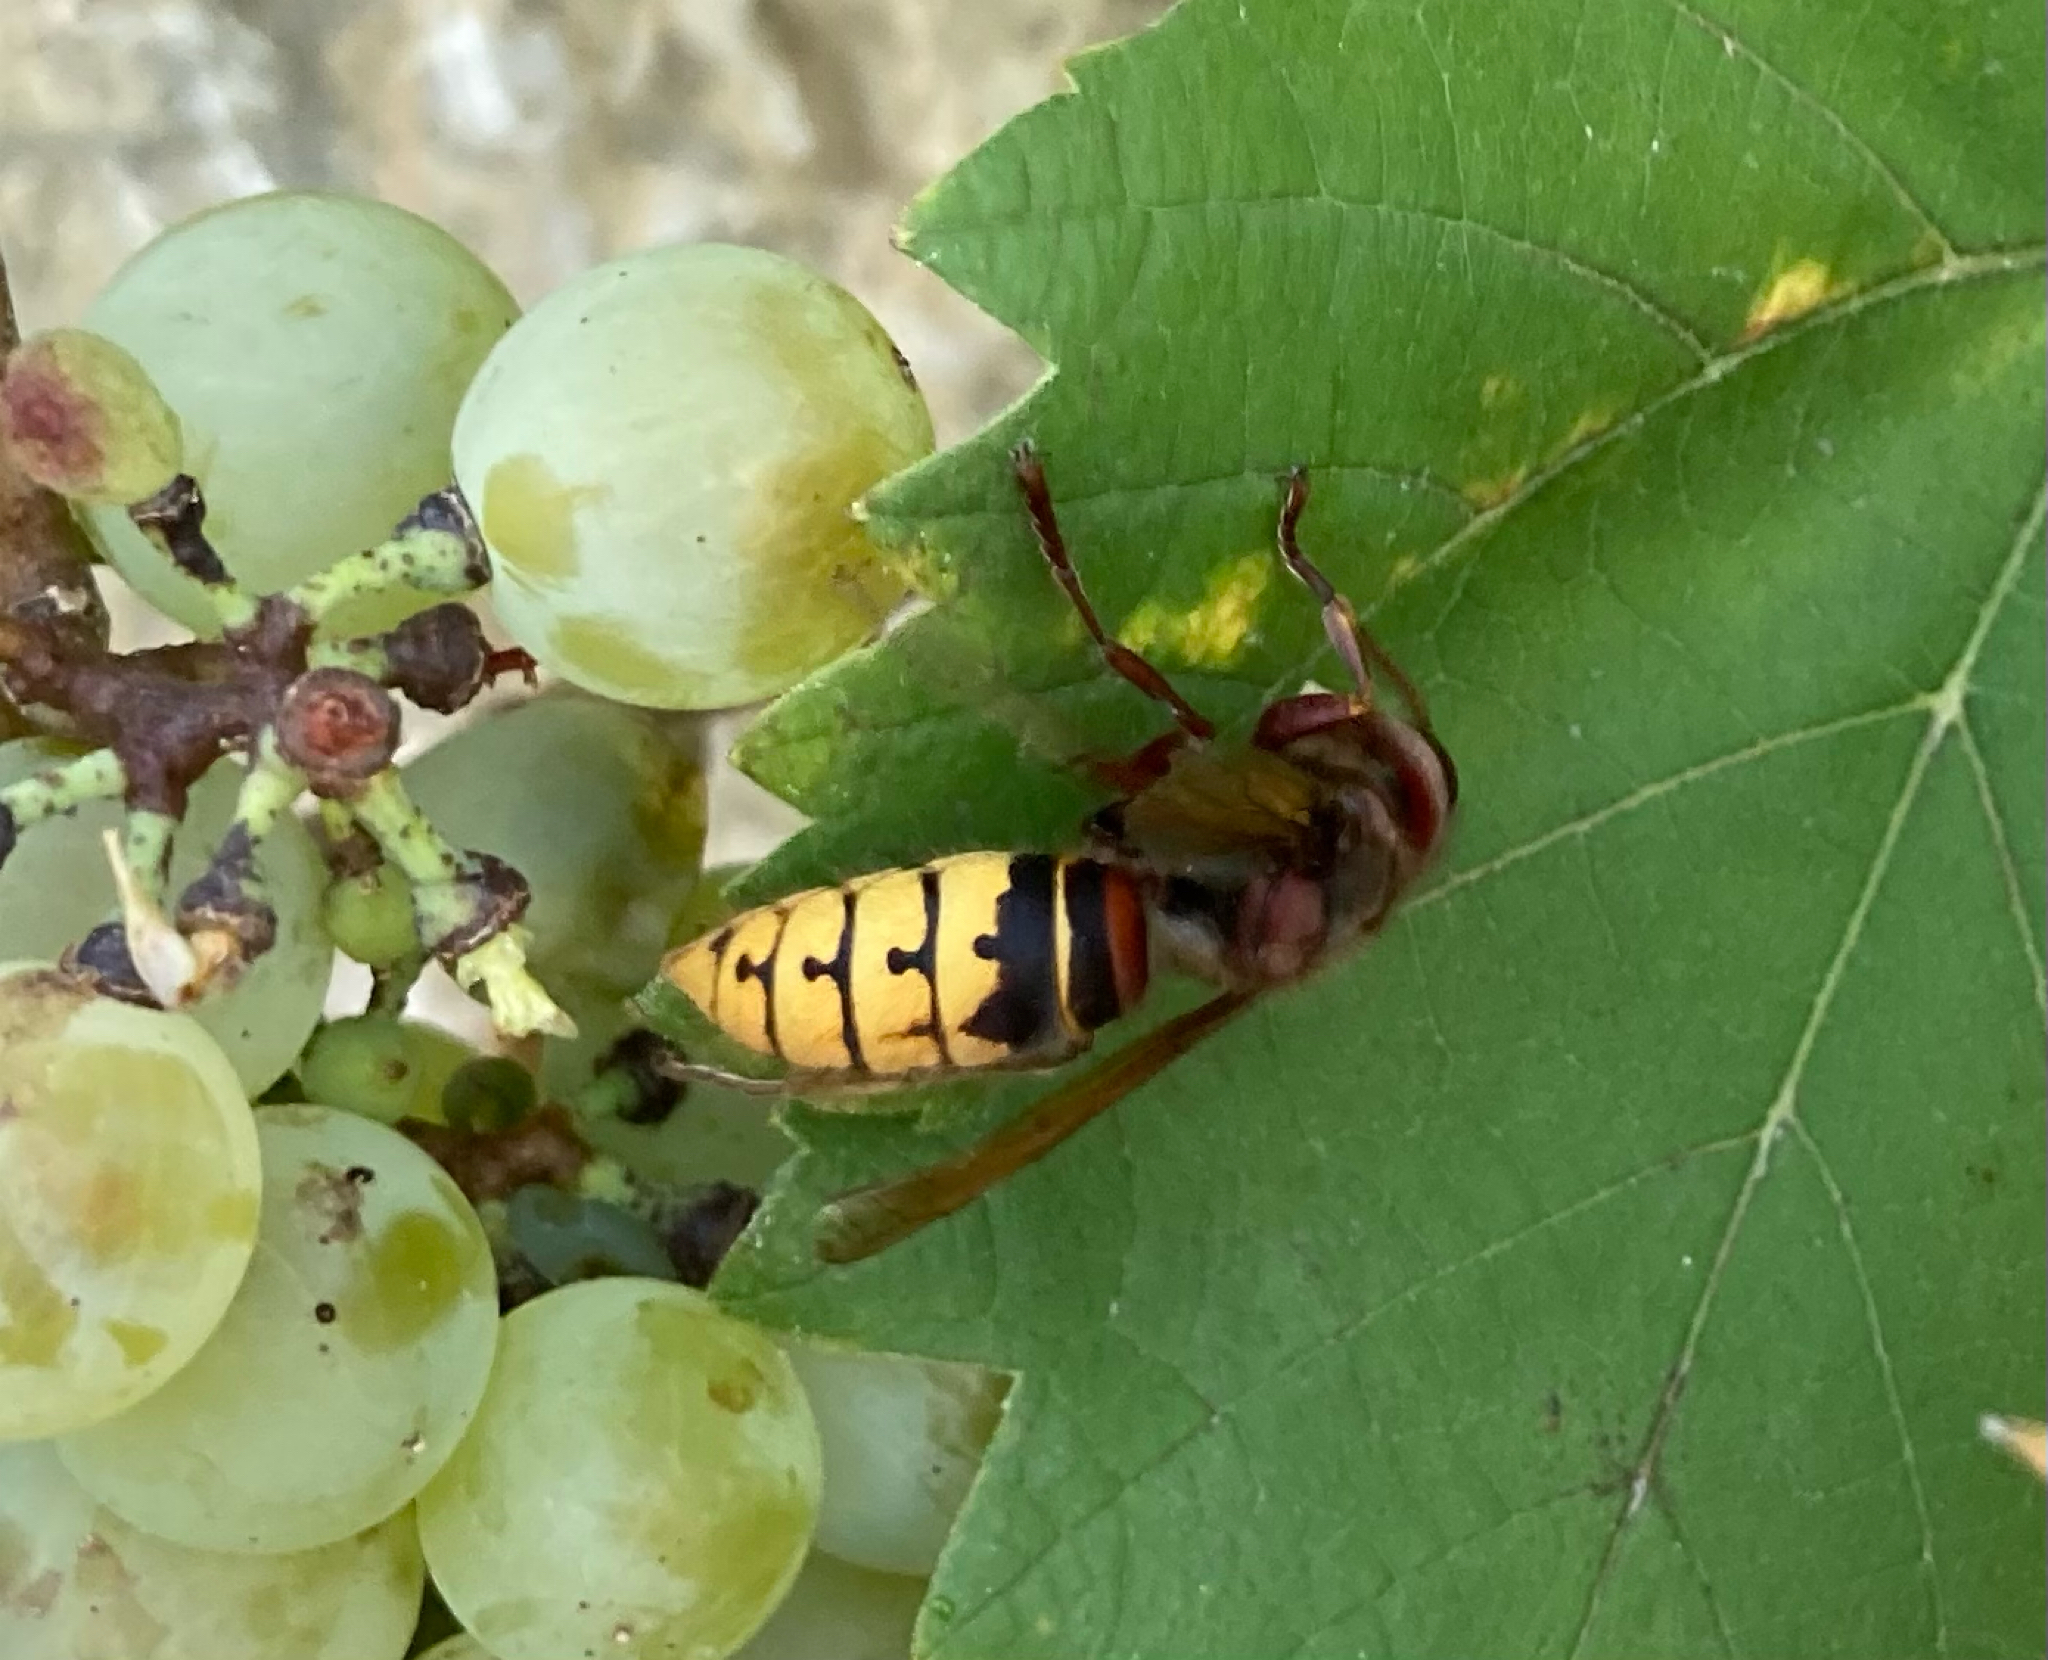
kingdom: Animalia
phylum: Arthropoda
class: Insecta
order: Hymenoptera
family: Vespidae
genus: Vespa
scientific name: Vespa crabro
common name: Hornet
